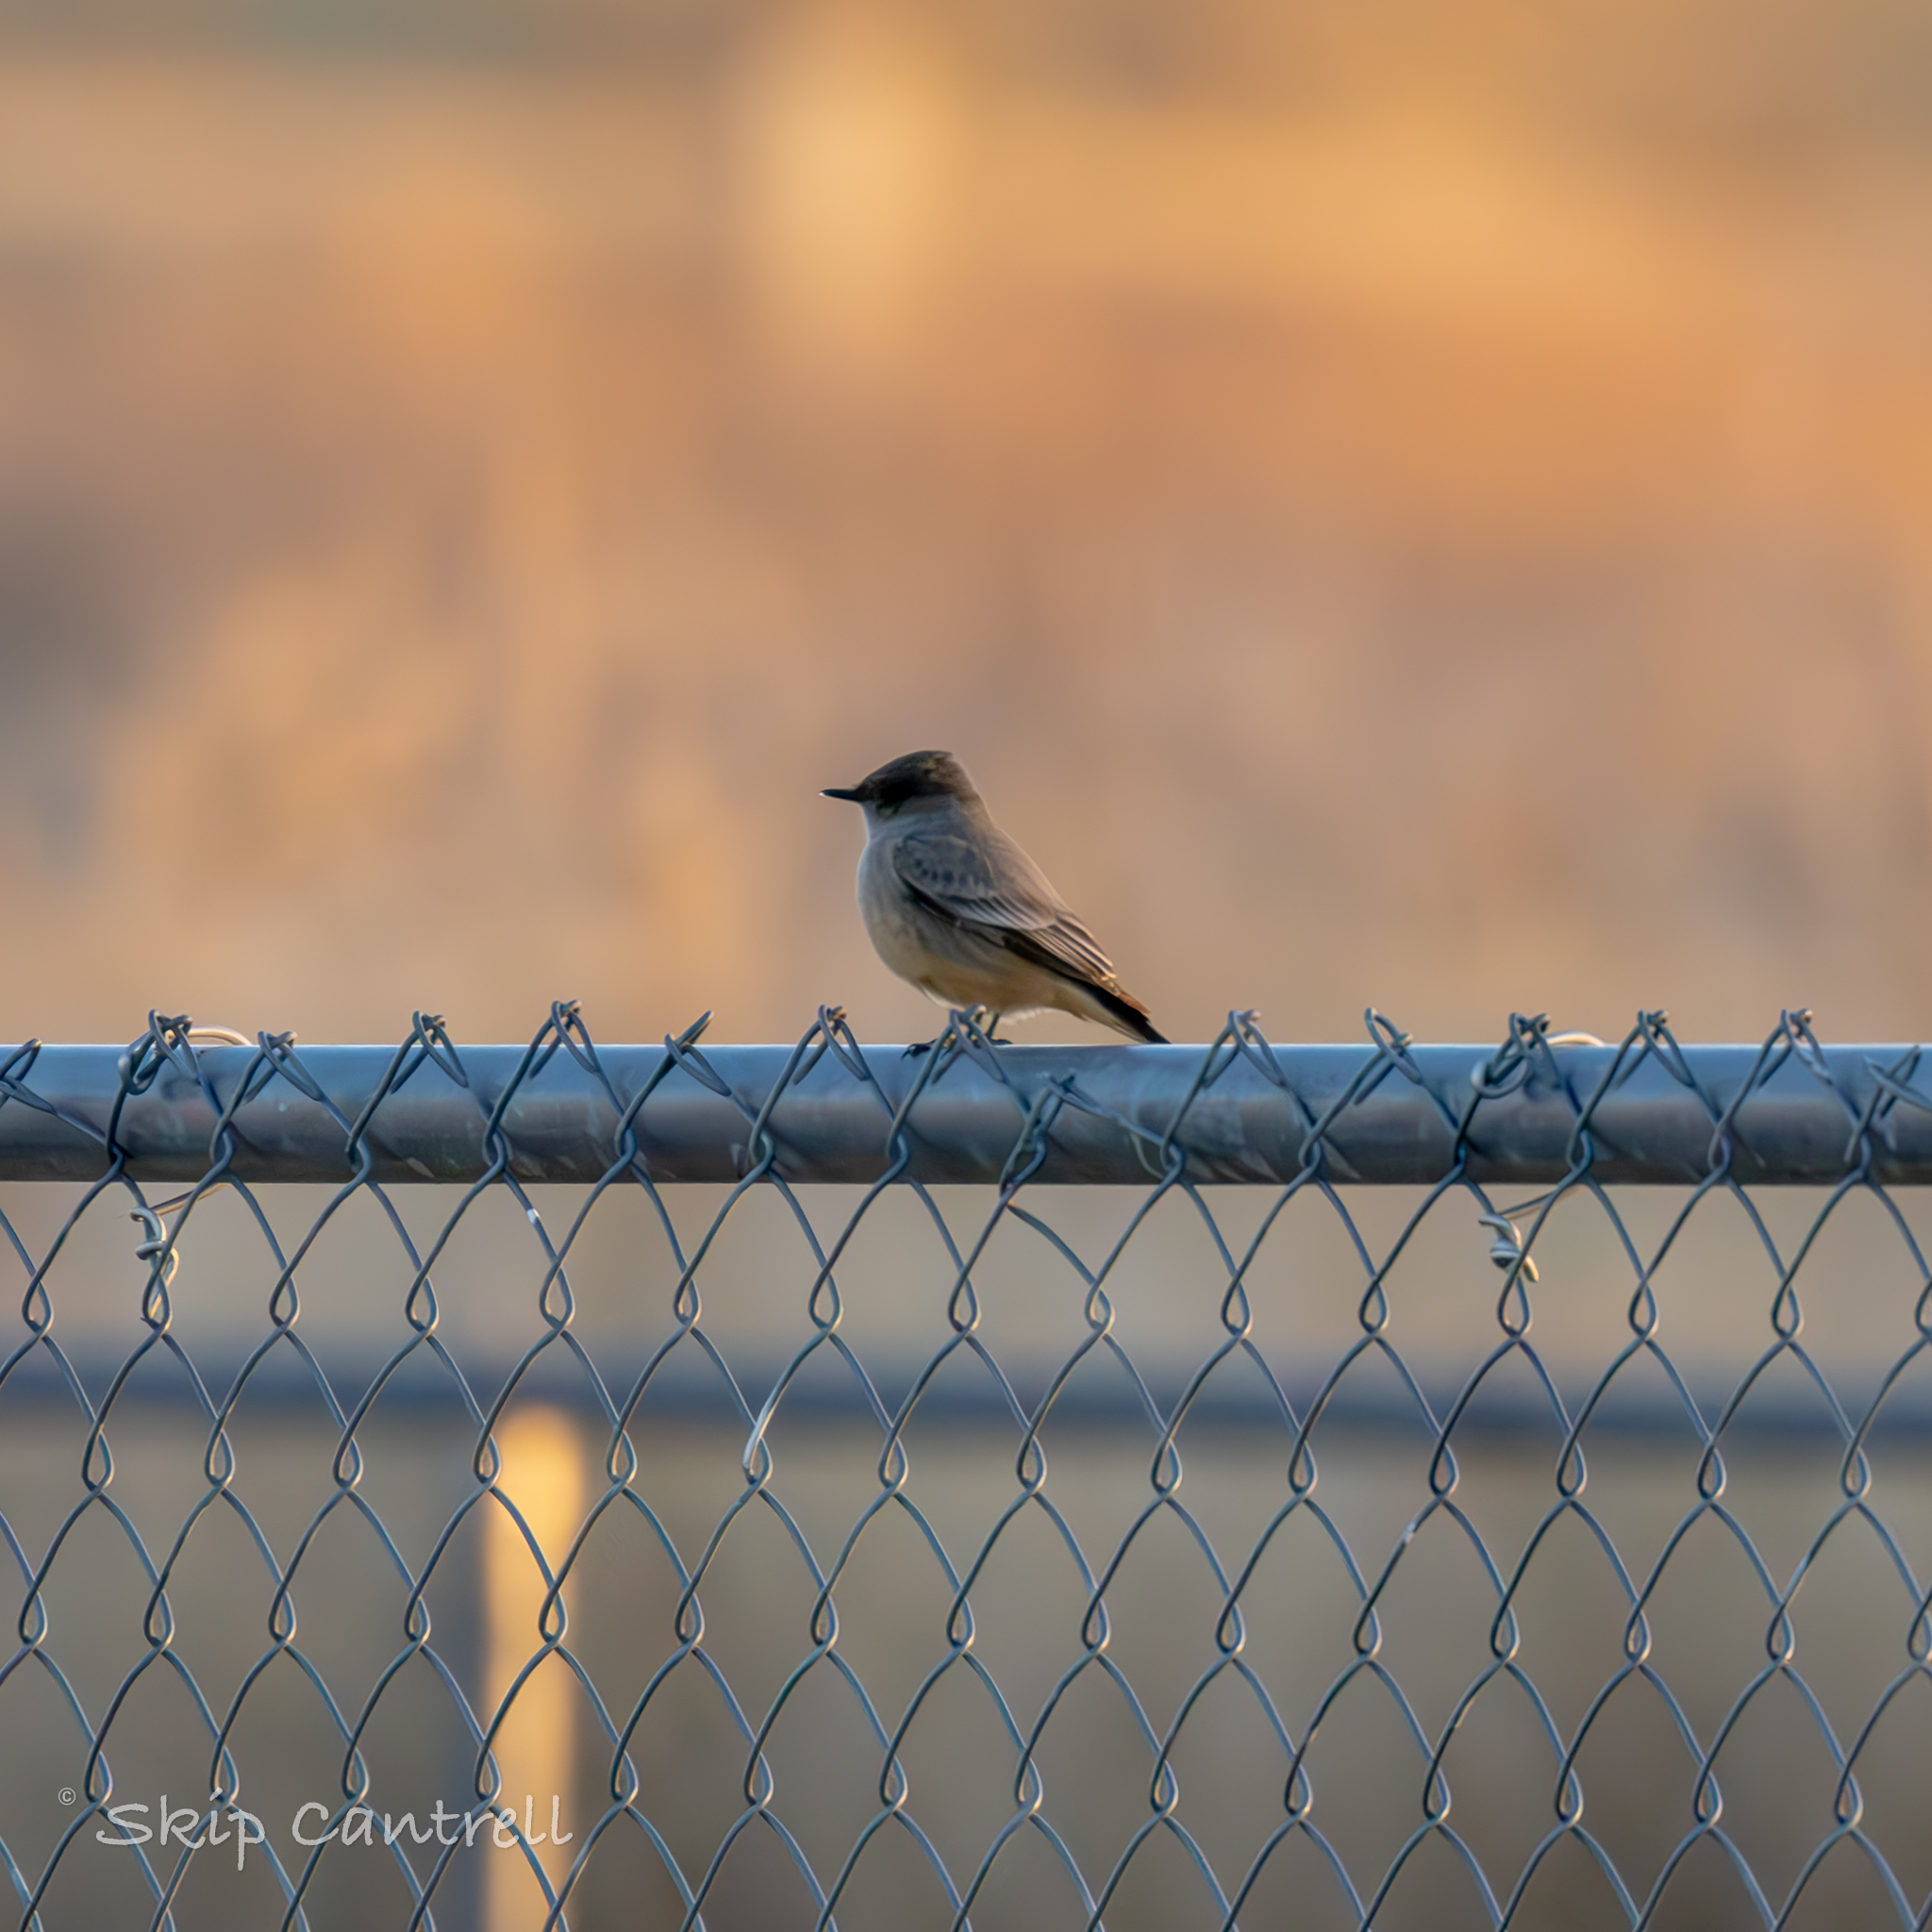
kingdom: Animalia
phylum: Chordata
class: Aves
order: Passeriformes
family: Tyrannidae
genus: Sayornis
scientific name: Sayornis saya
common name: Say's phoebe
